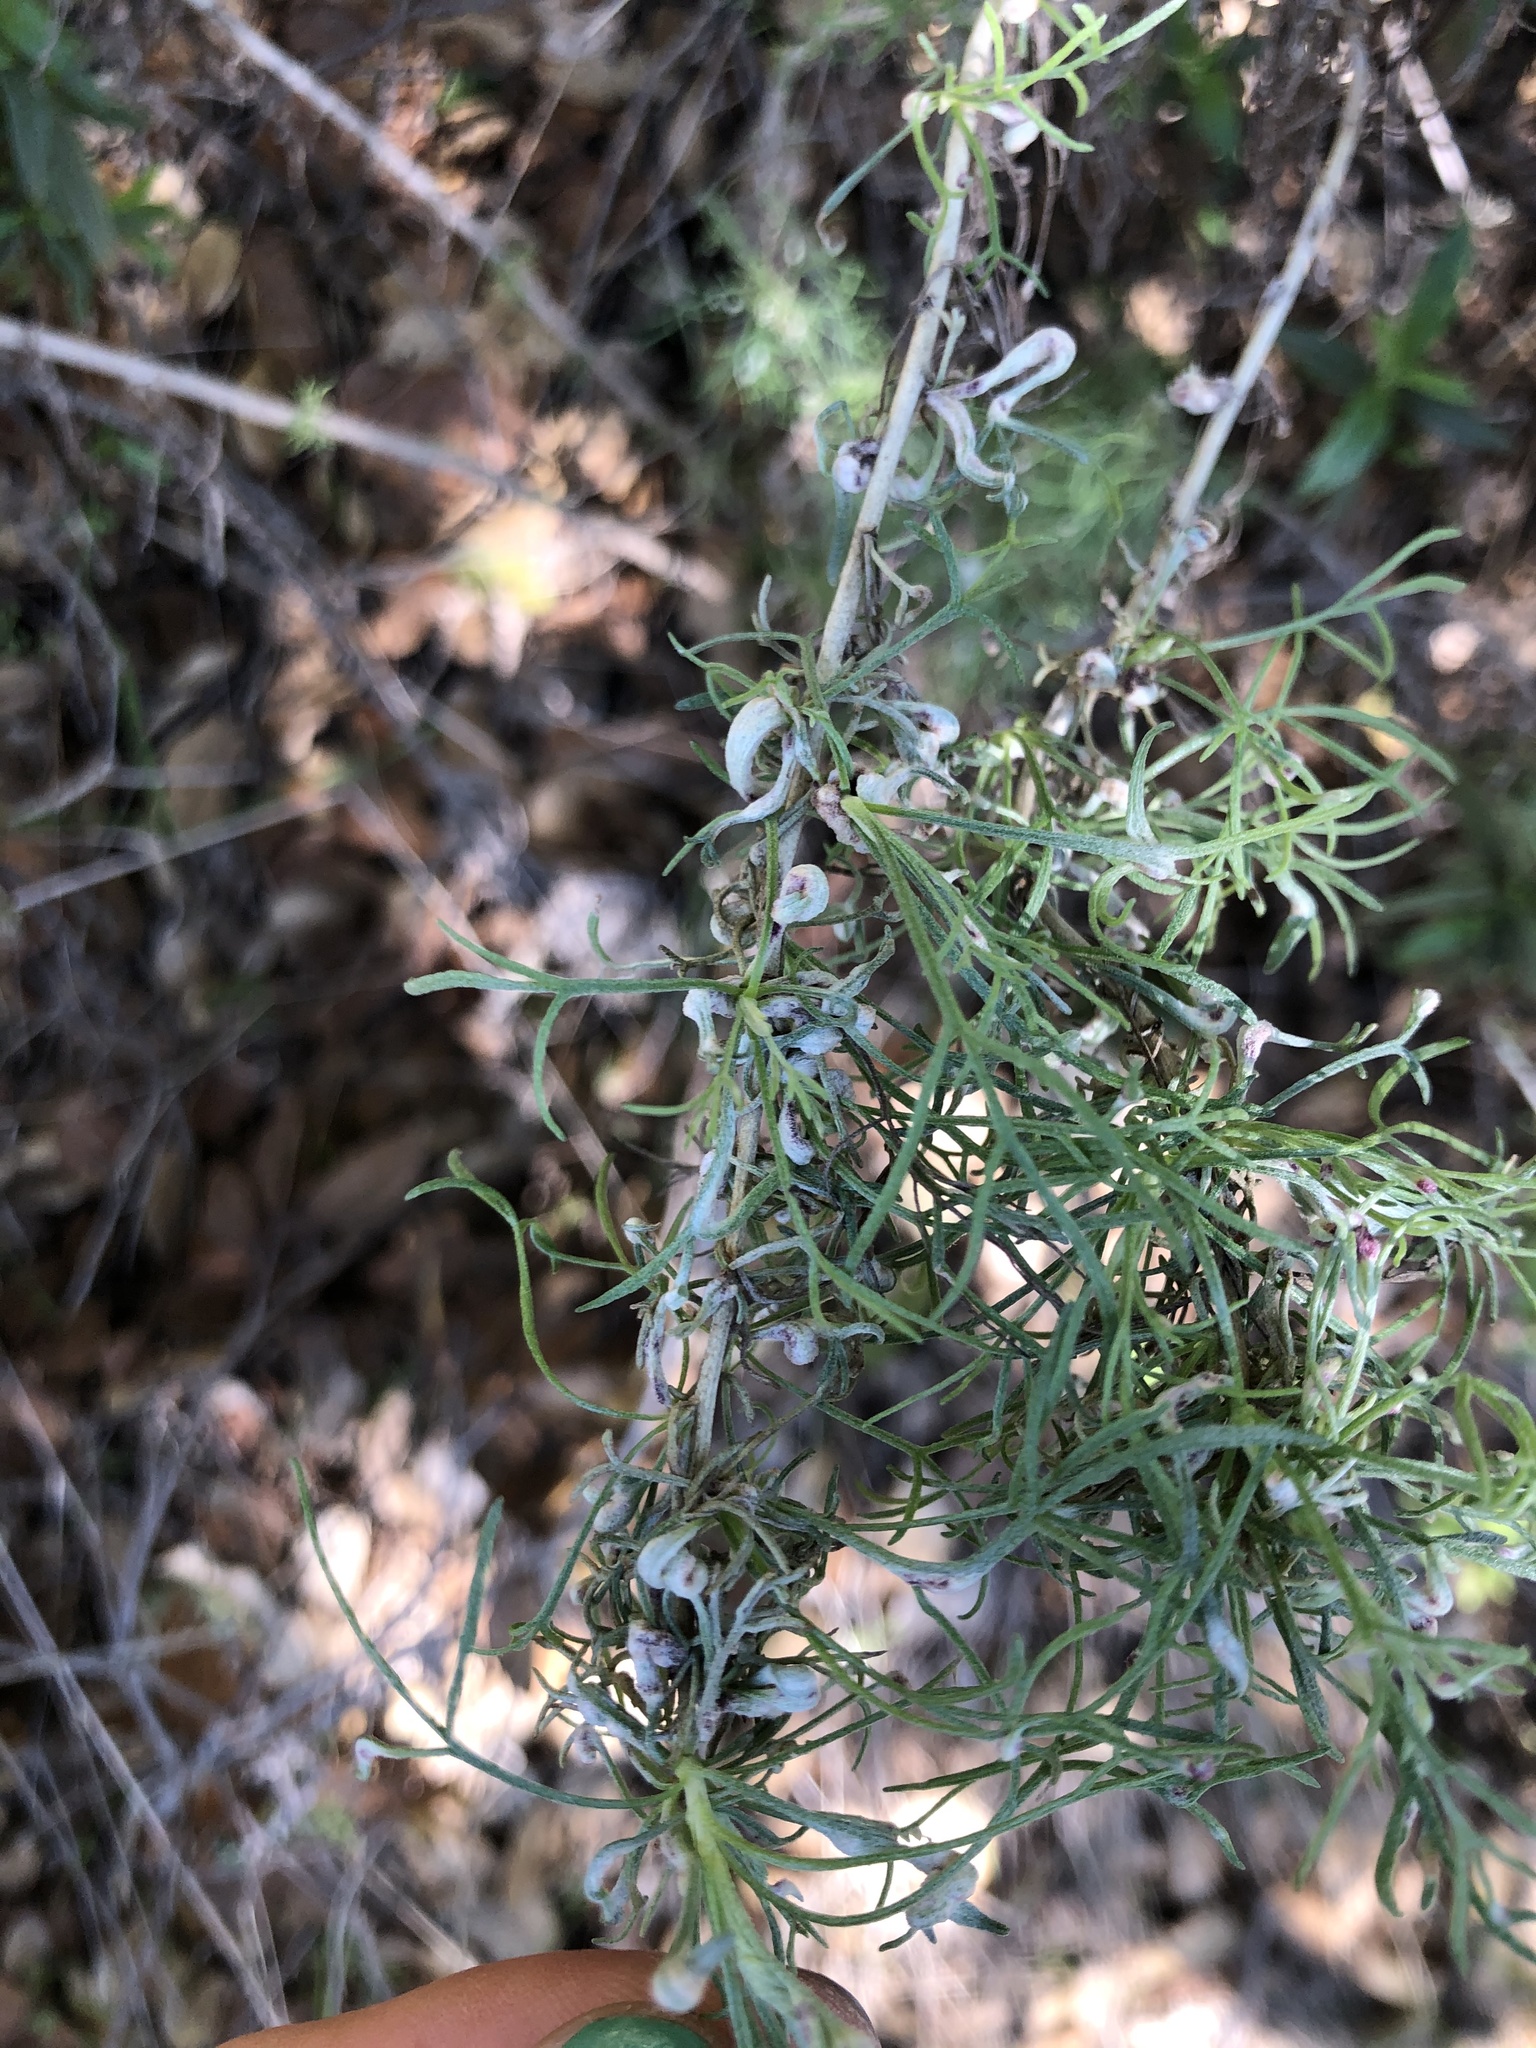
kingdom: Plantae
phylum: Tracheophyta
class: Magnoliopsida
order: Asterales
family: Asteraceae
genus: Artemisia
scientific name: Artemisia californica
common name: California sagebrush
